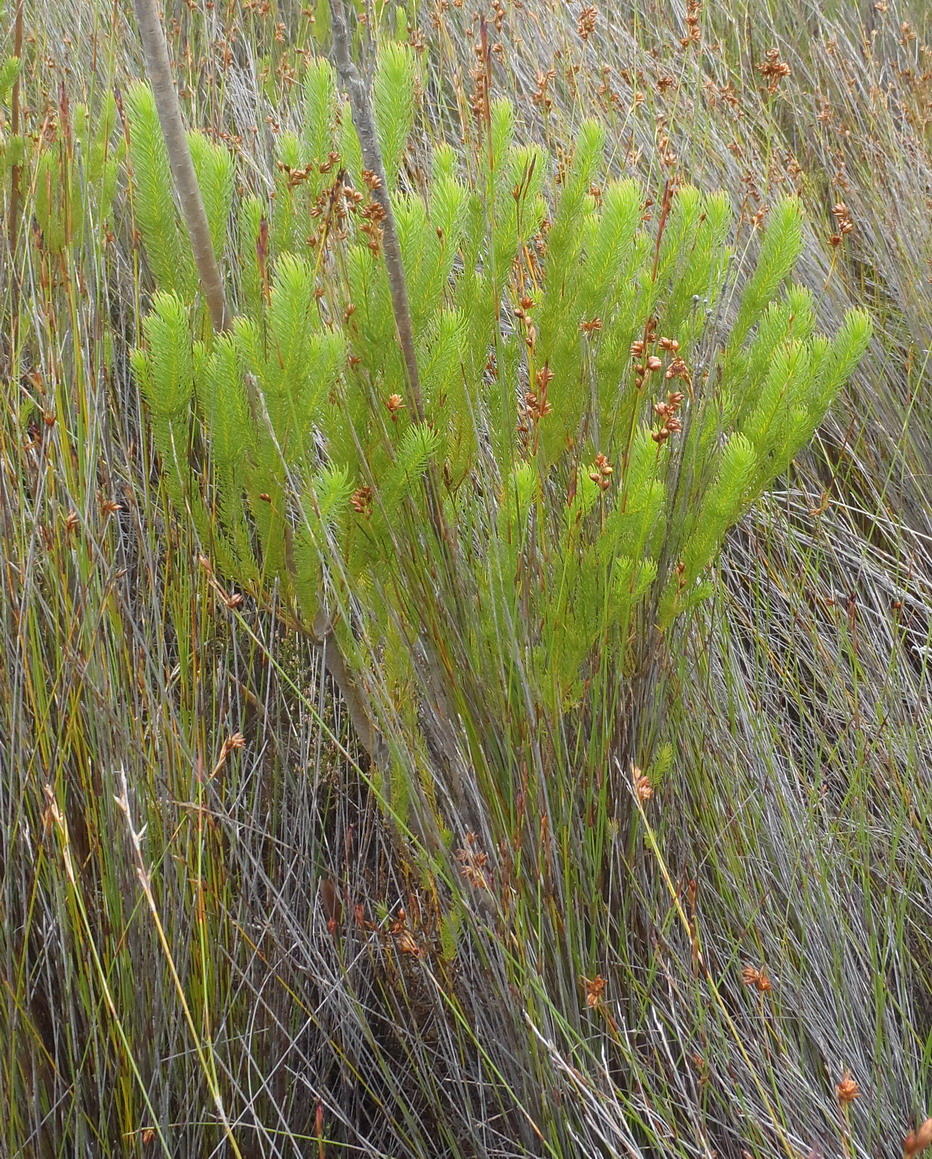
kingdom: Plantae
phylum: Tracheophyta
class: Magnoliopsida
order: Proteales
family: Proteaceae
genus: Leucadendron
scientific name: Leucadendron ericifolium
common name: Erica-leaved conebush
